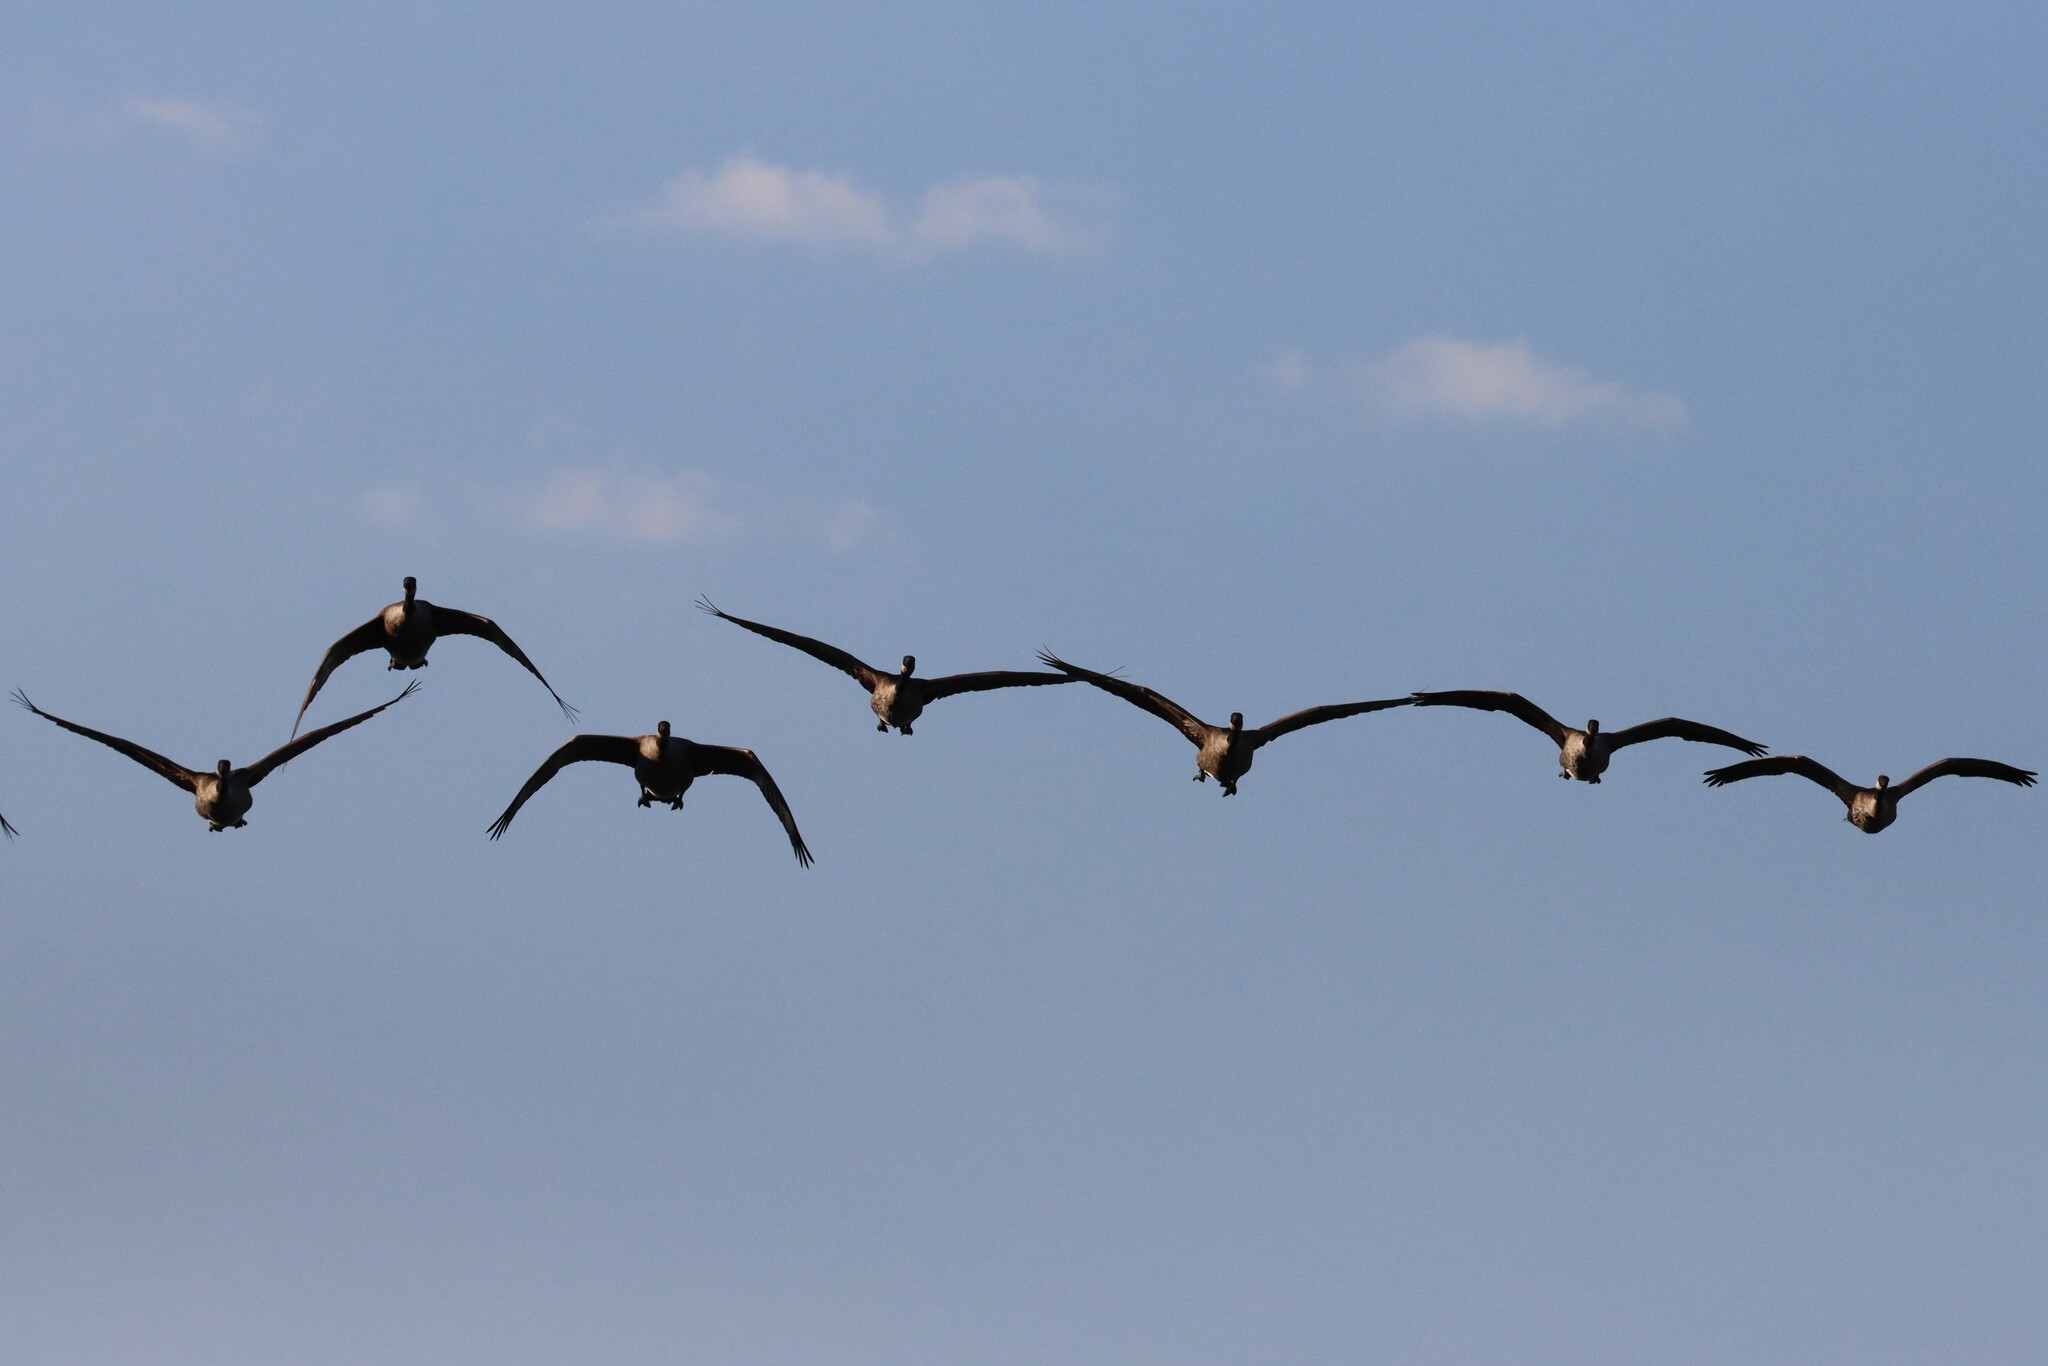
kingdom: Animalia
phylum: Chordata
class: Aves
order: Anseriformes
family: Anatidae
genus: Branta
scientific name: Branta canadensis
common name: Canada goose
